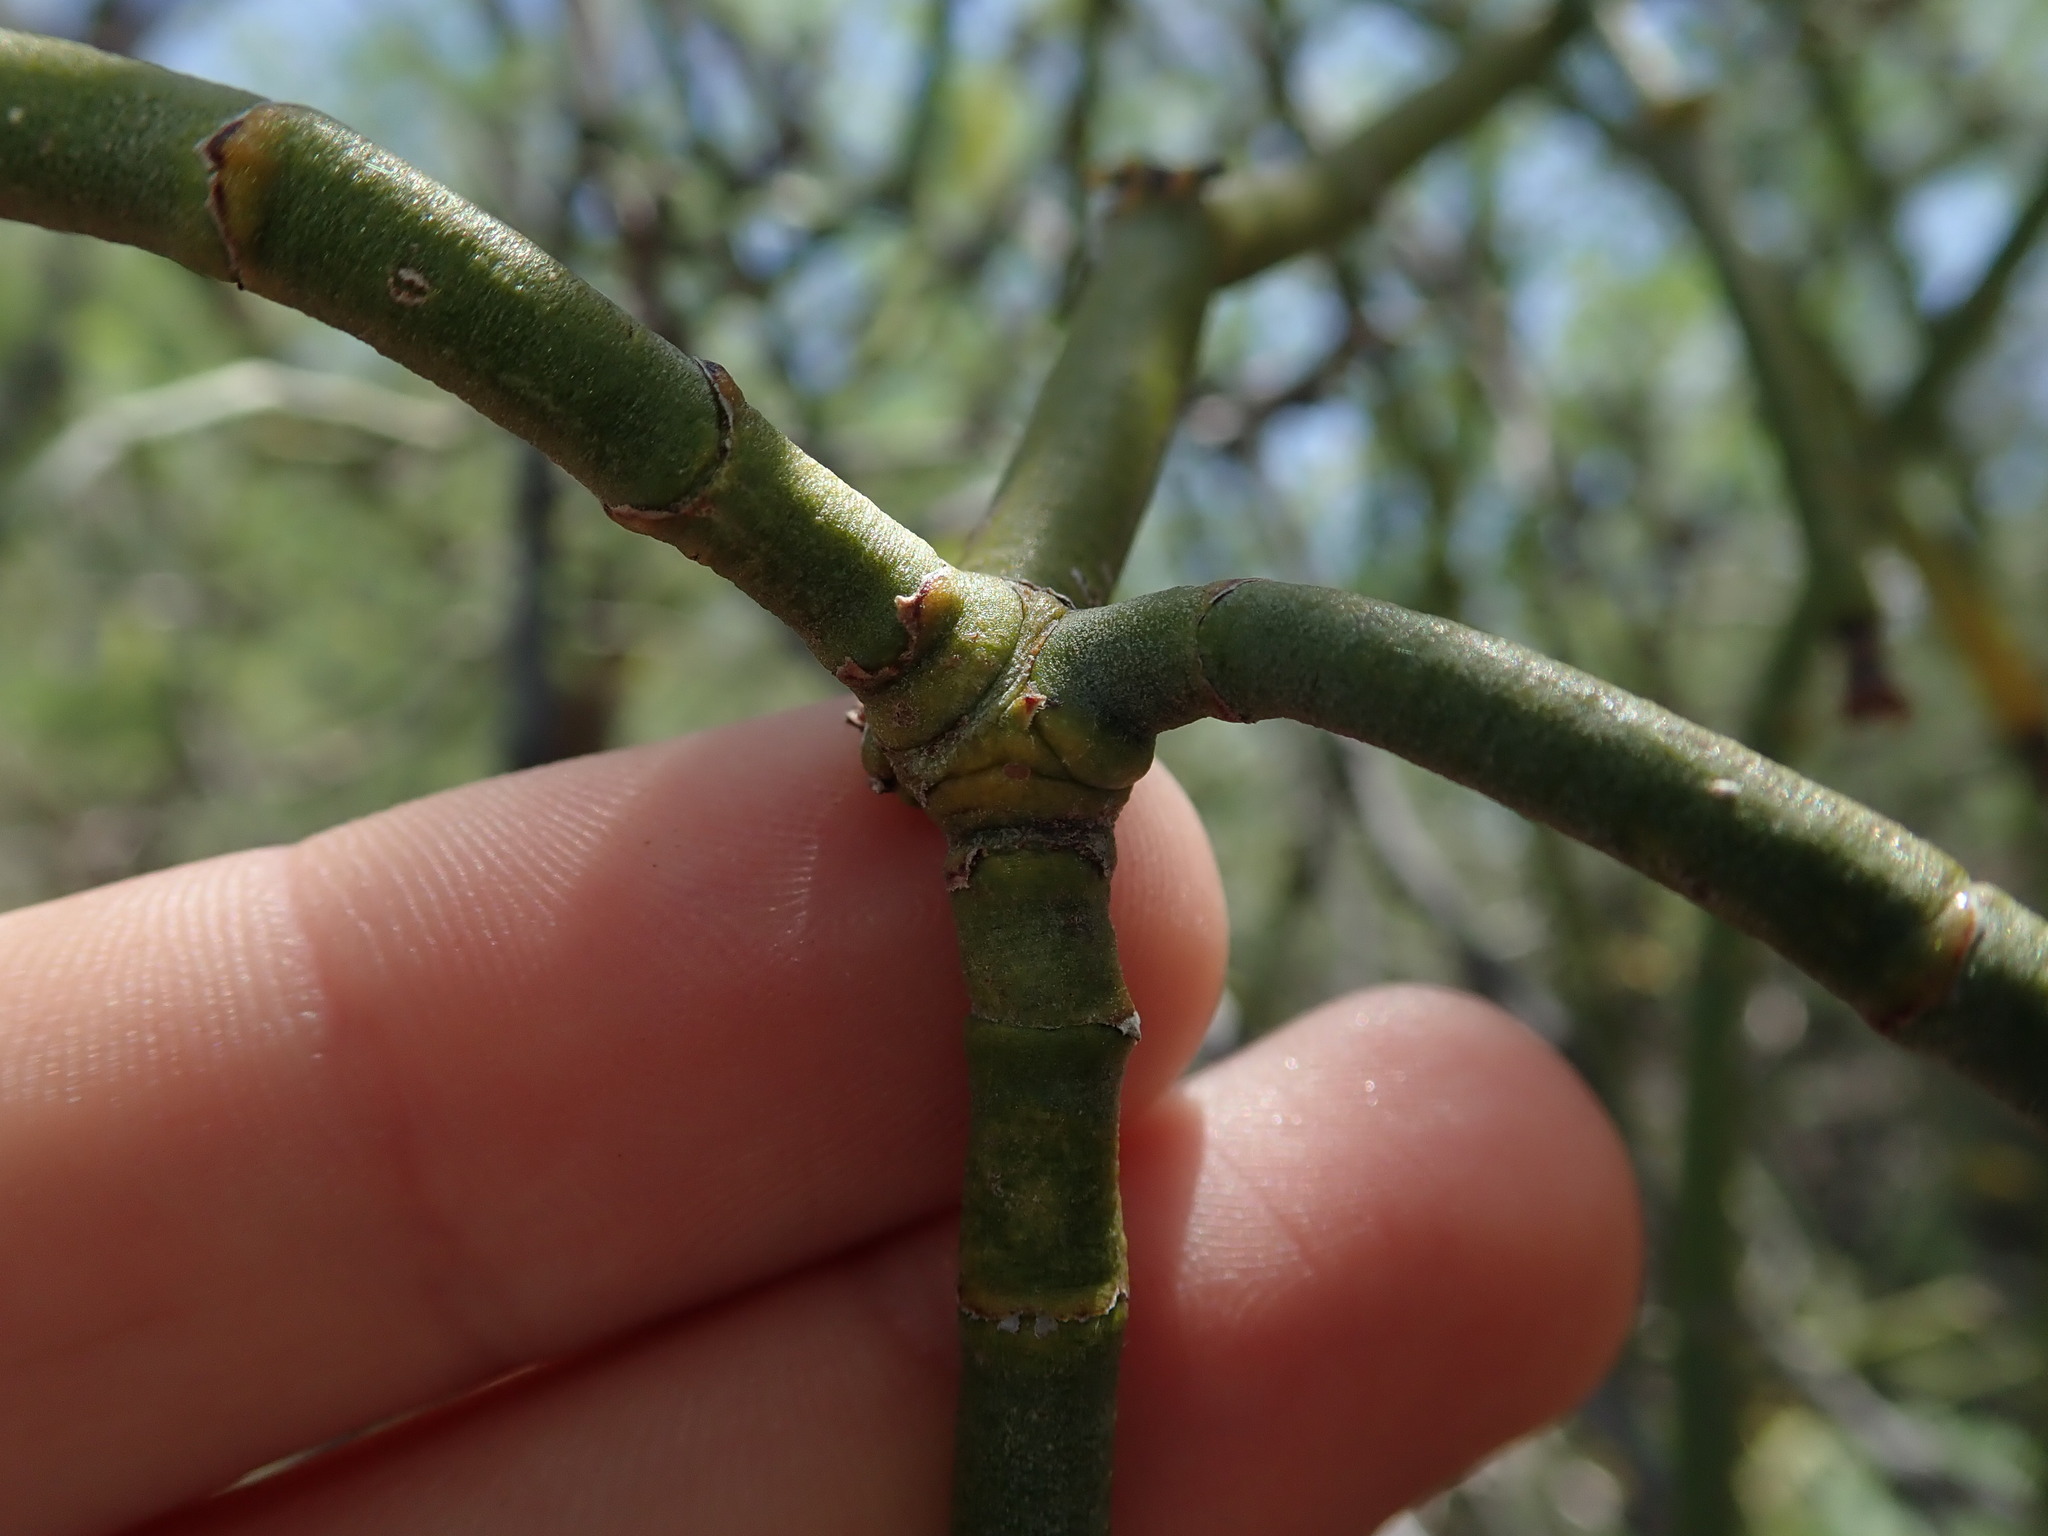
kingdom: Plantae
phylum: Tracheophyta
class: Magnoliopsida
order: Santalales
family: Viscaceae
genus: Phoradendron
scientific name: Phoradendron californicum
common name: Acacia mistletoe
